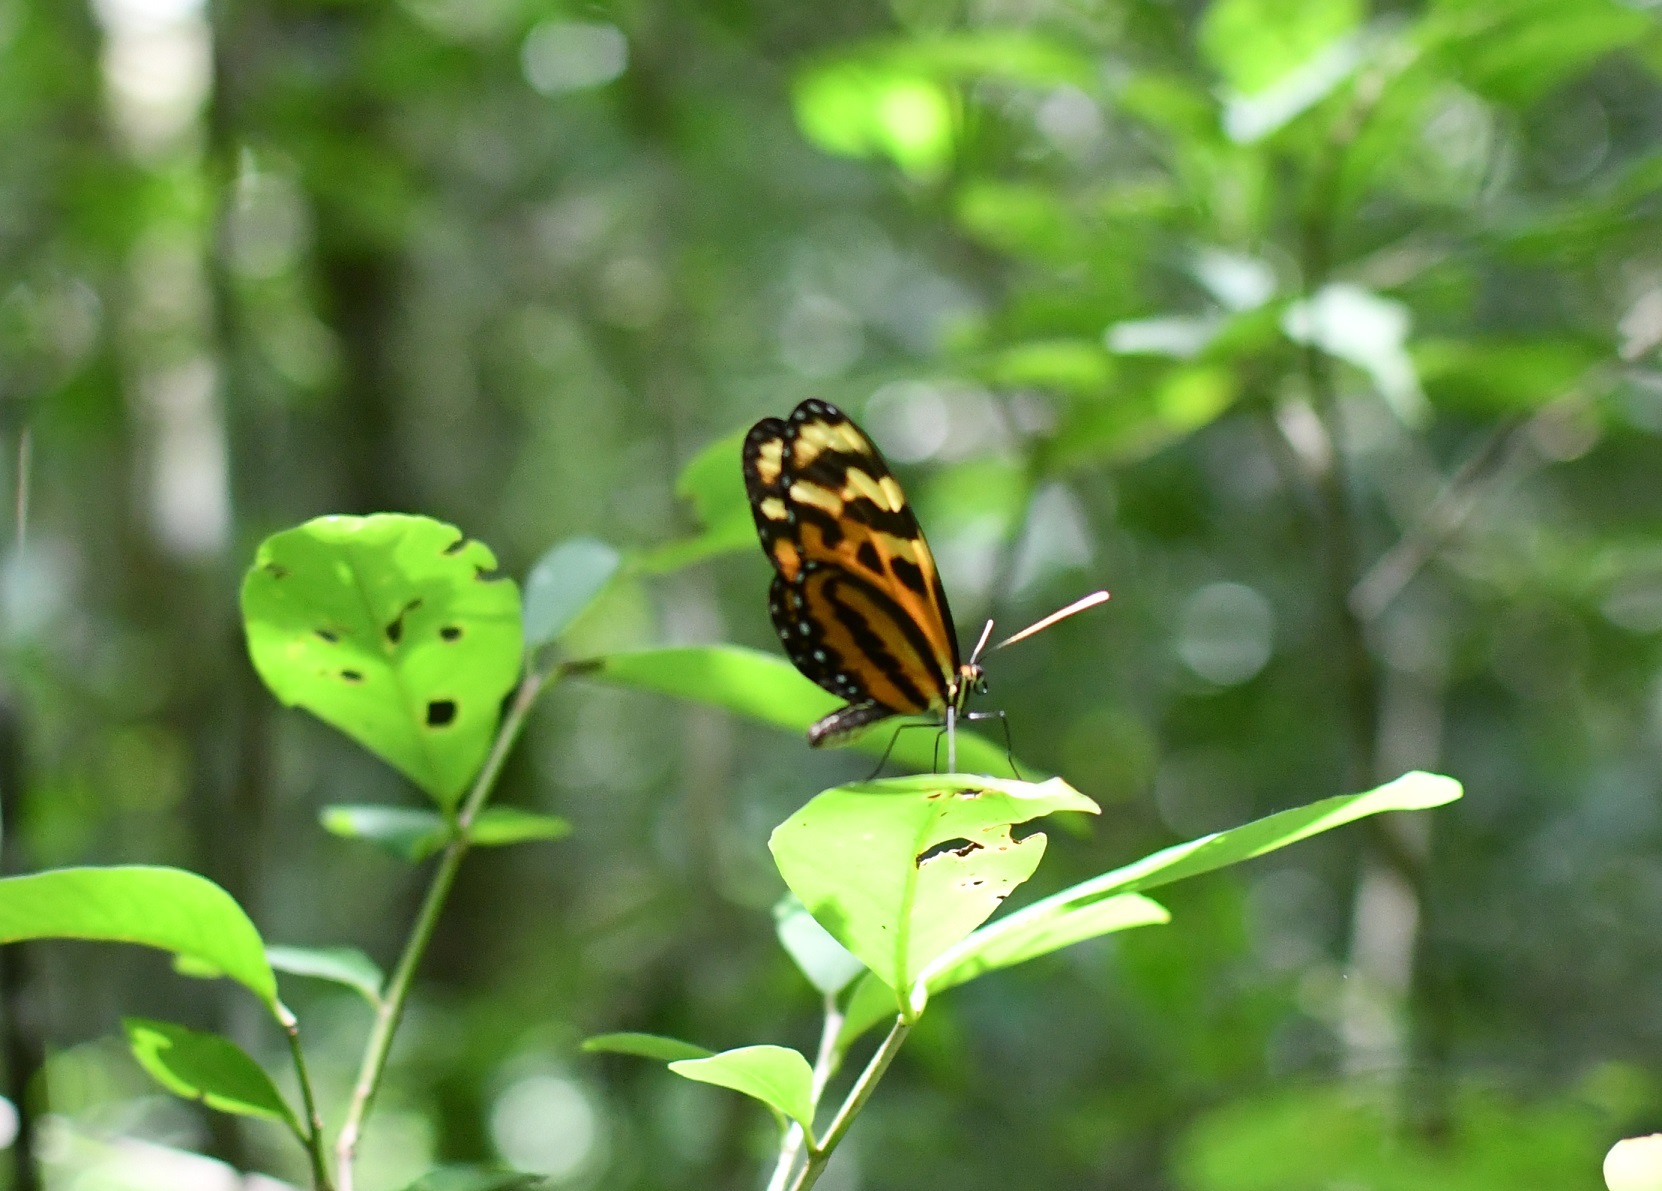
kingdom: Animalia
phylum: Arthropoda
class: Insecta
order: Lepidoptera
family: Nymphalidae
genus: Mechanitis
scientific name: Mechanitis menapis
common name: Menapis tigerwing
